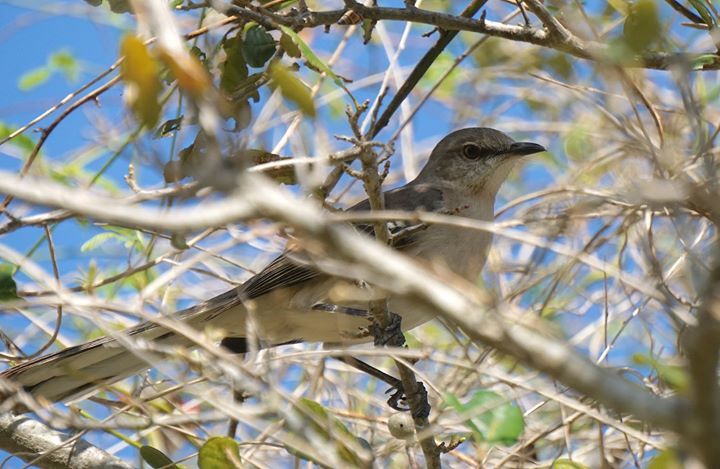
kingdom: Animalia
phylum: Chordata
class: Aves
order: Passeriformes
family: Mimidae
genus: Mimus
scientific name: Mimus polyglottos
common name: Northern mockingbird
